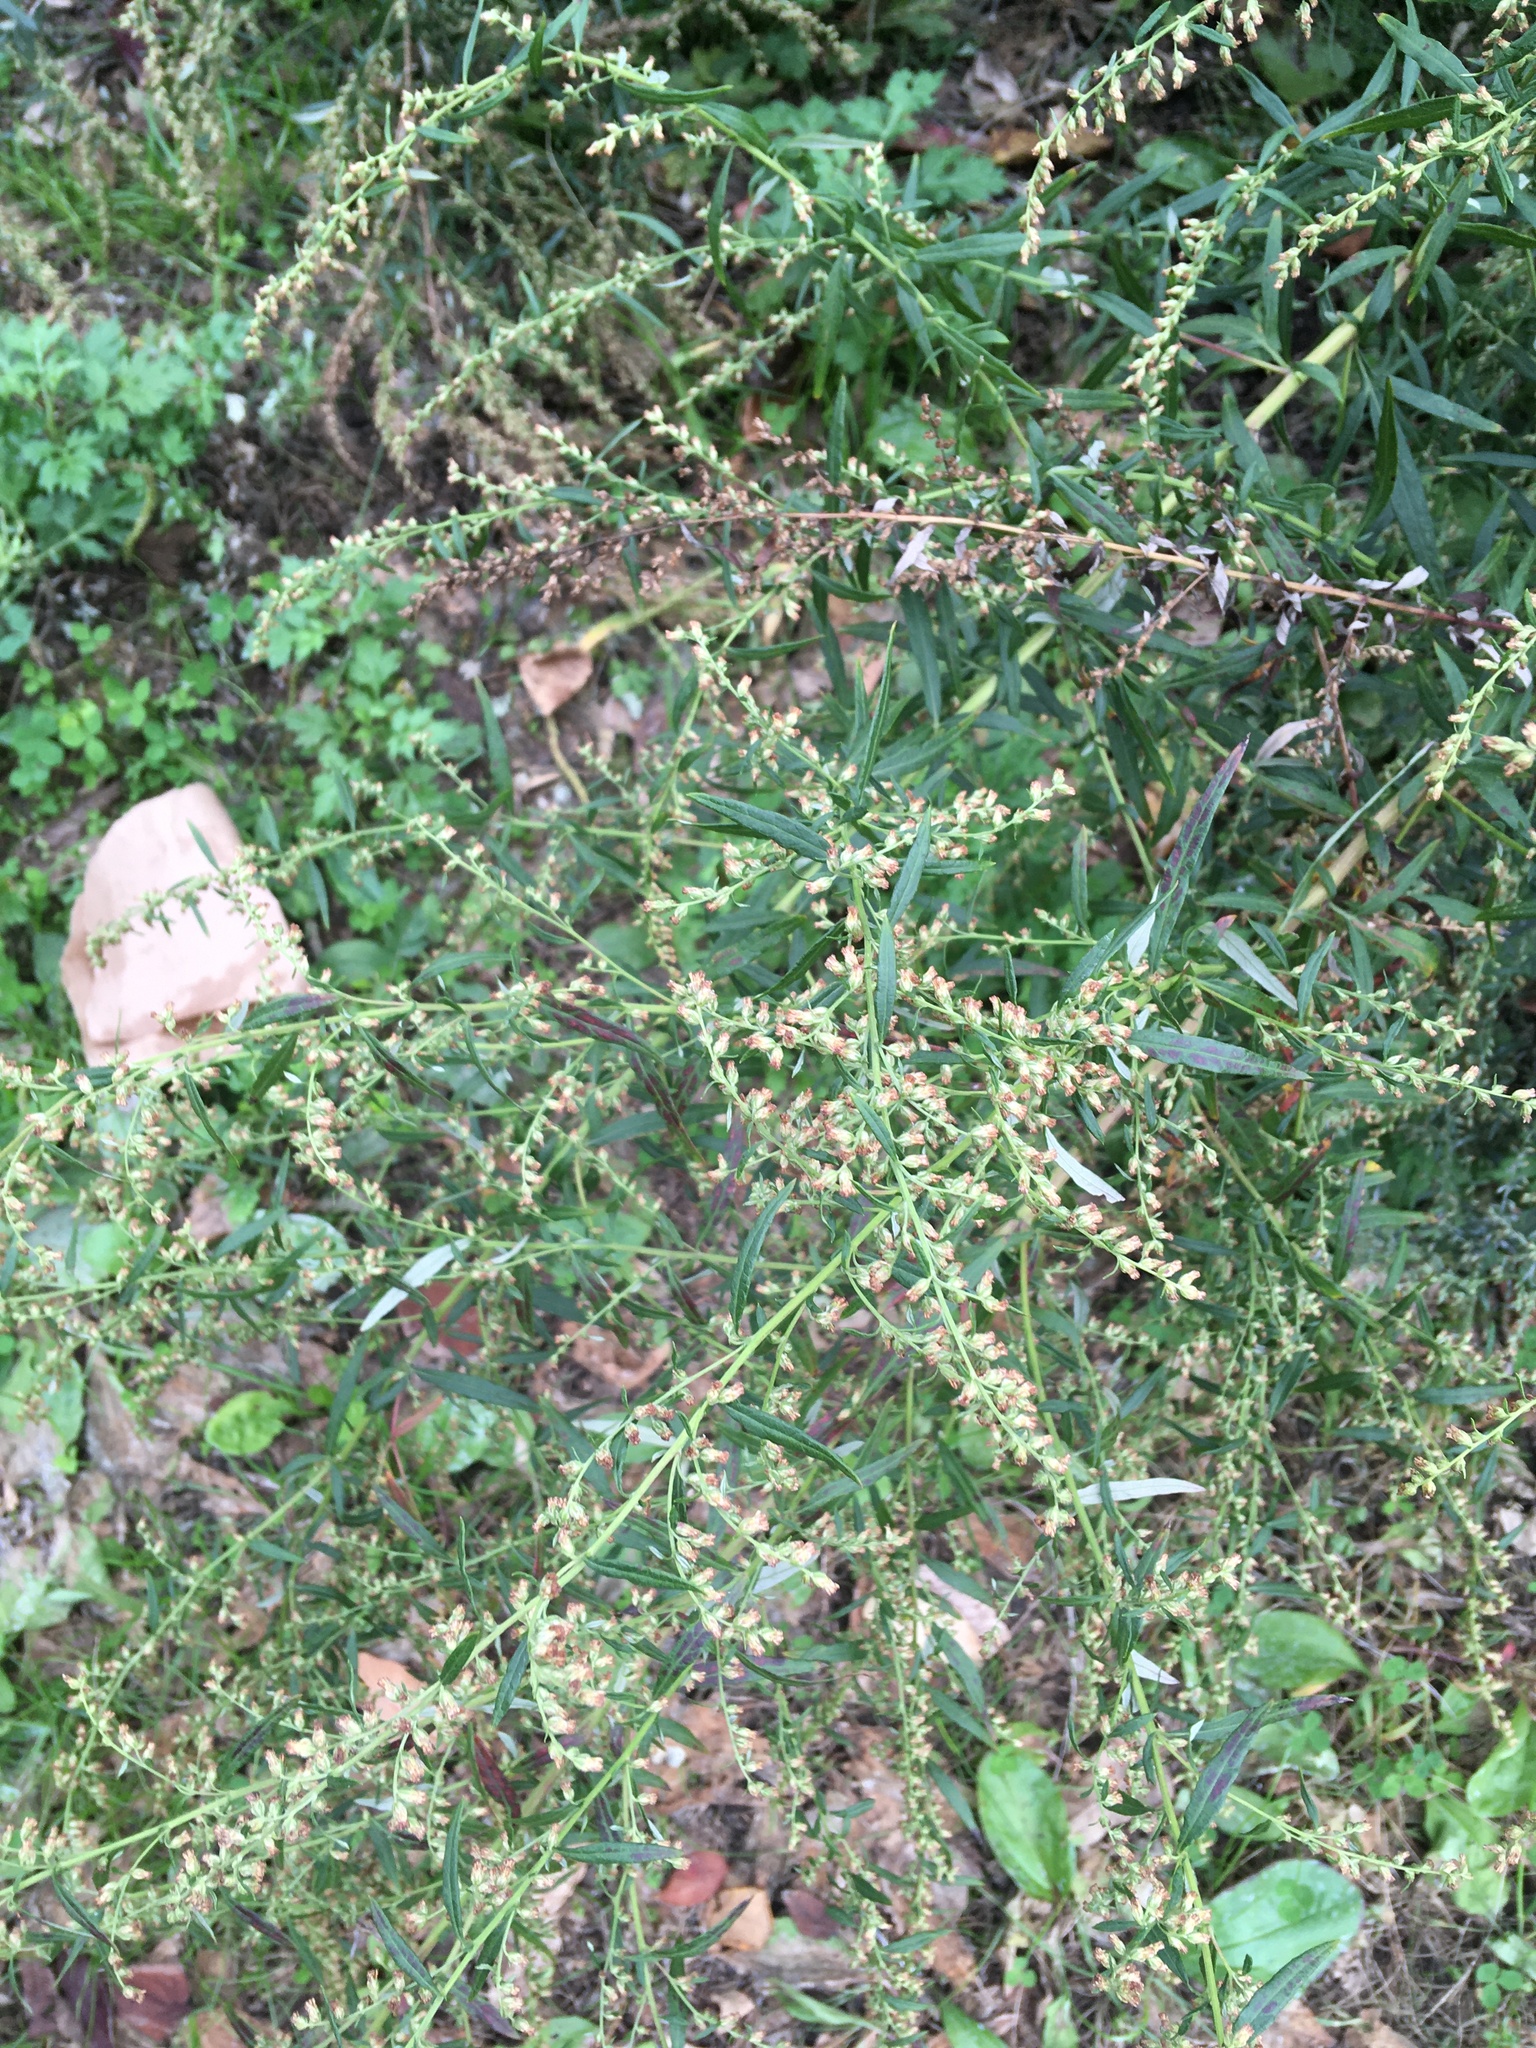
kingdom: Plantae
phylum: Tracheophyta
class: Magnoliopsida
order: Asterales
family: Asteraceae
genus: Artemisia
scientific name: Artemisia vulgaris
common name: Mugwort
